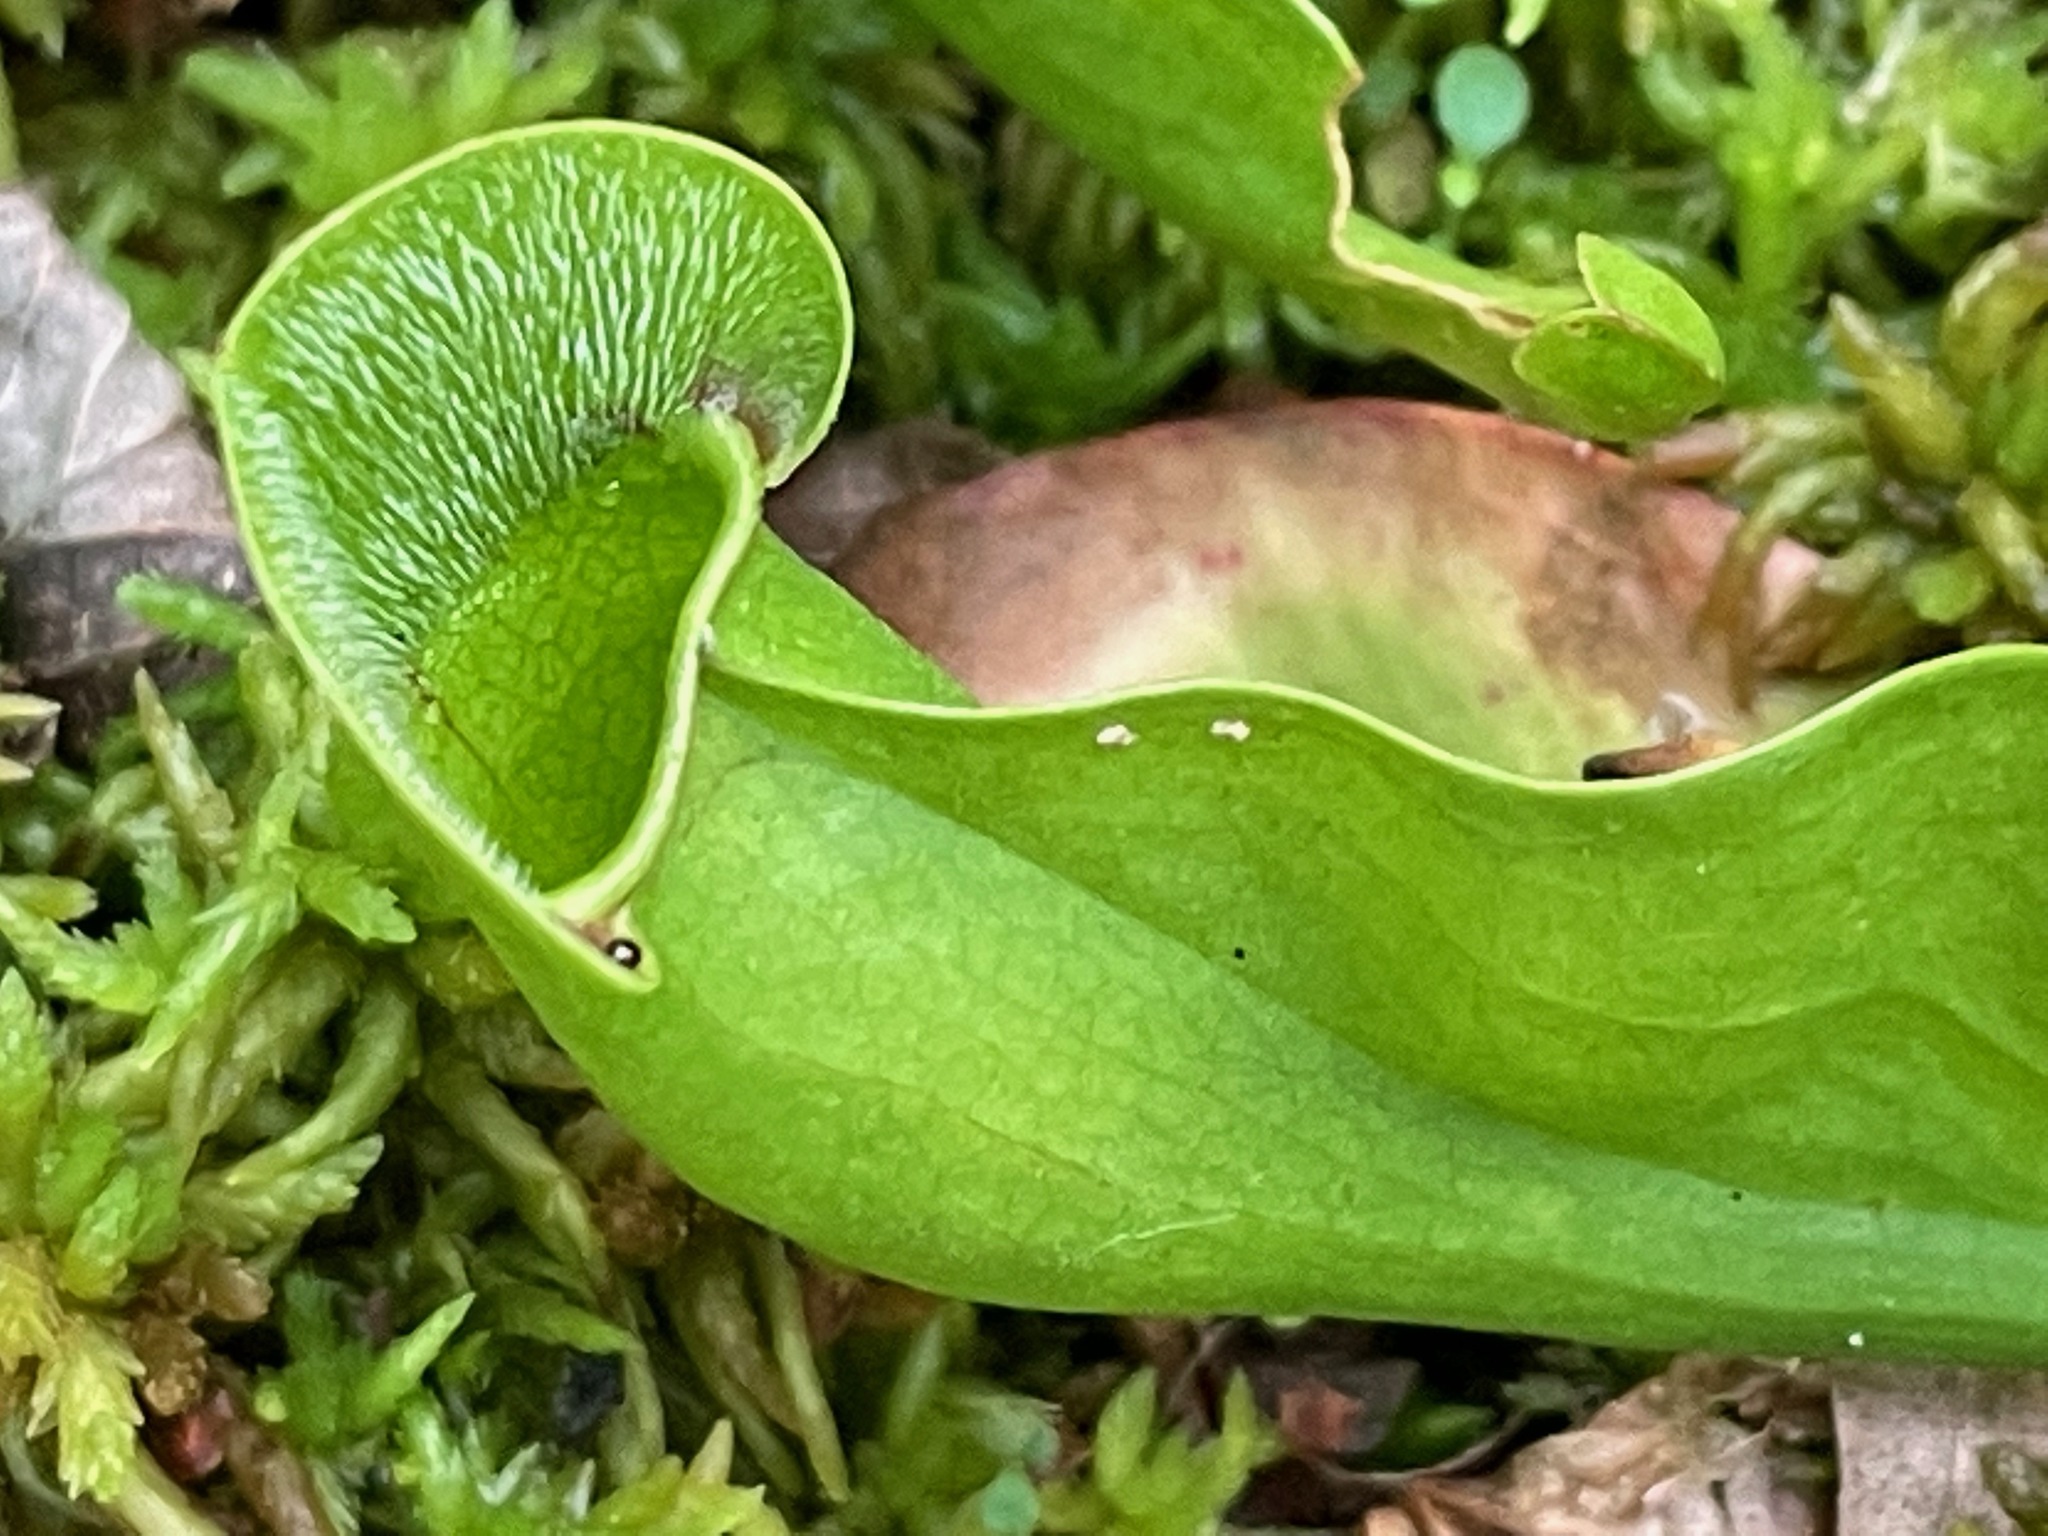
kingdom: Plantae
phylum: Tracheophyta
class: Magnoliopsida
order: Ericales
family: Sarraceniaceae
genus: Sarracenia
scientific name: Sarracenia purpurea
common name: Pitcherplant
